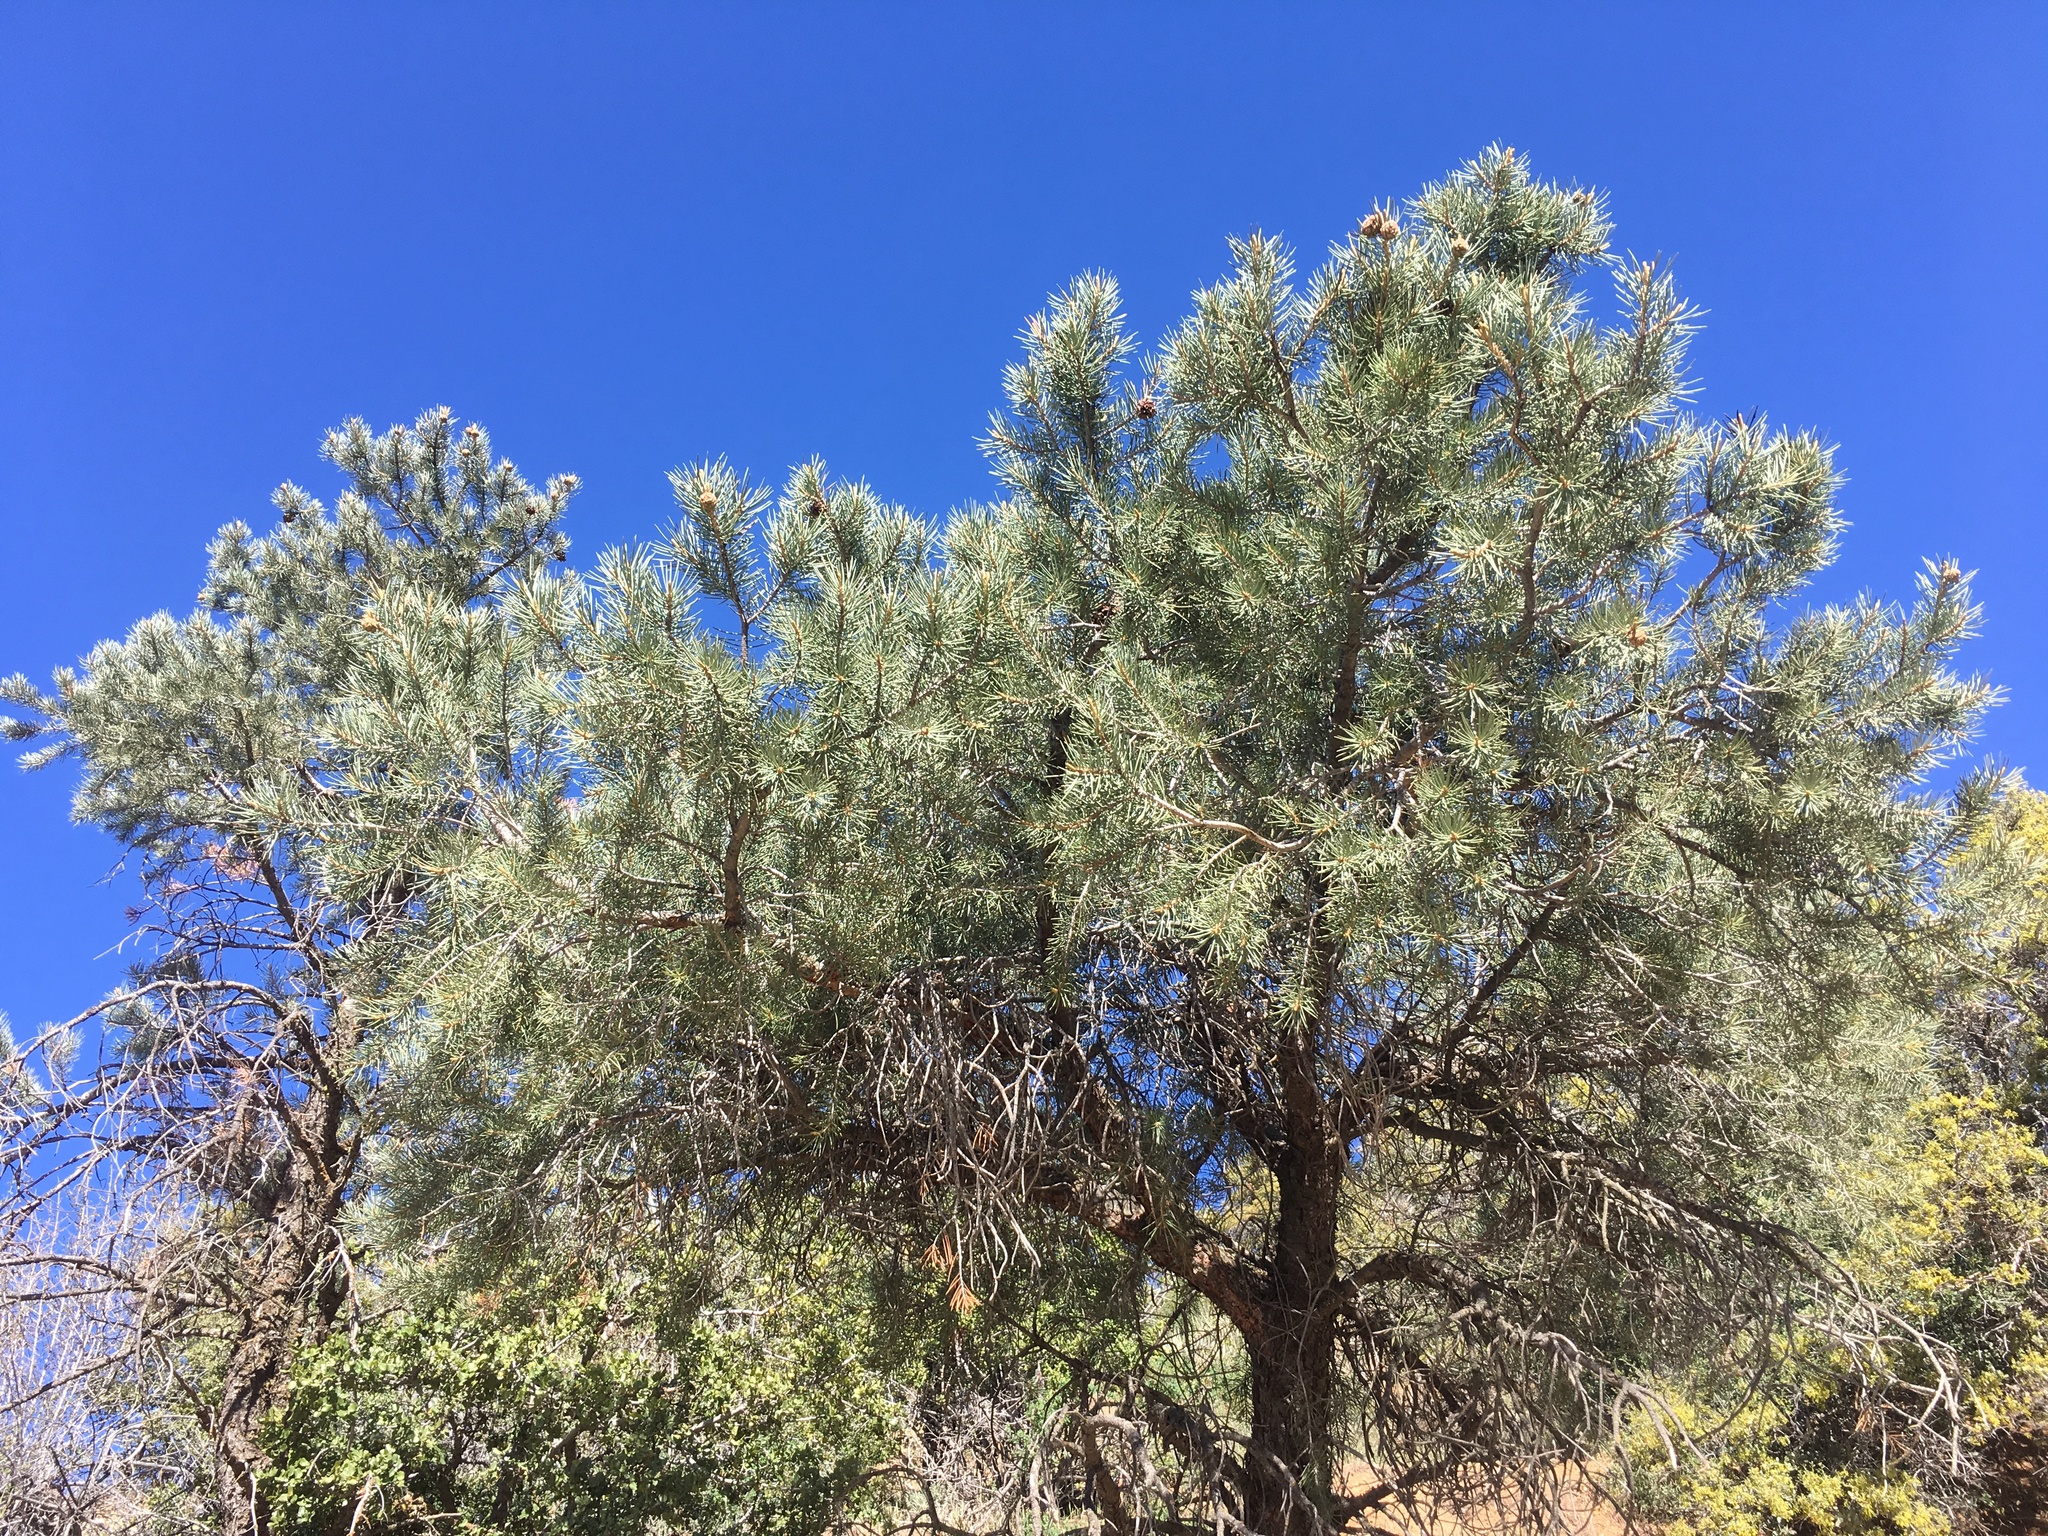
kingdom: Plantae
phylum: Tracheophyta
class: Pinopsida
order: Pinales
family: Pinaceae
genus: Pinus
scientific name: Pinus monophylla
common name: One-leaved nut pine
